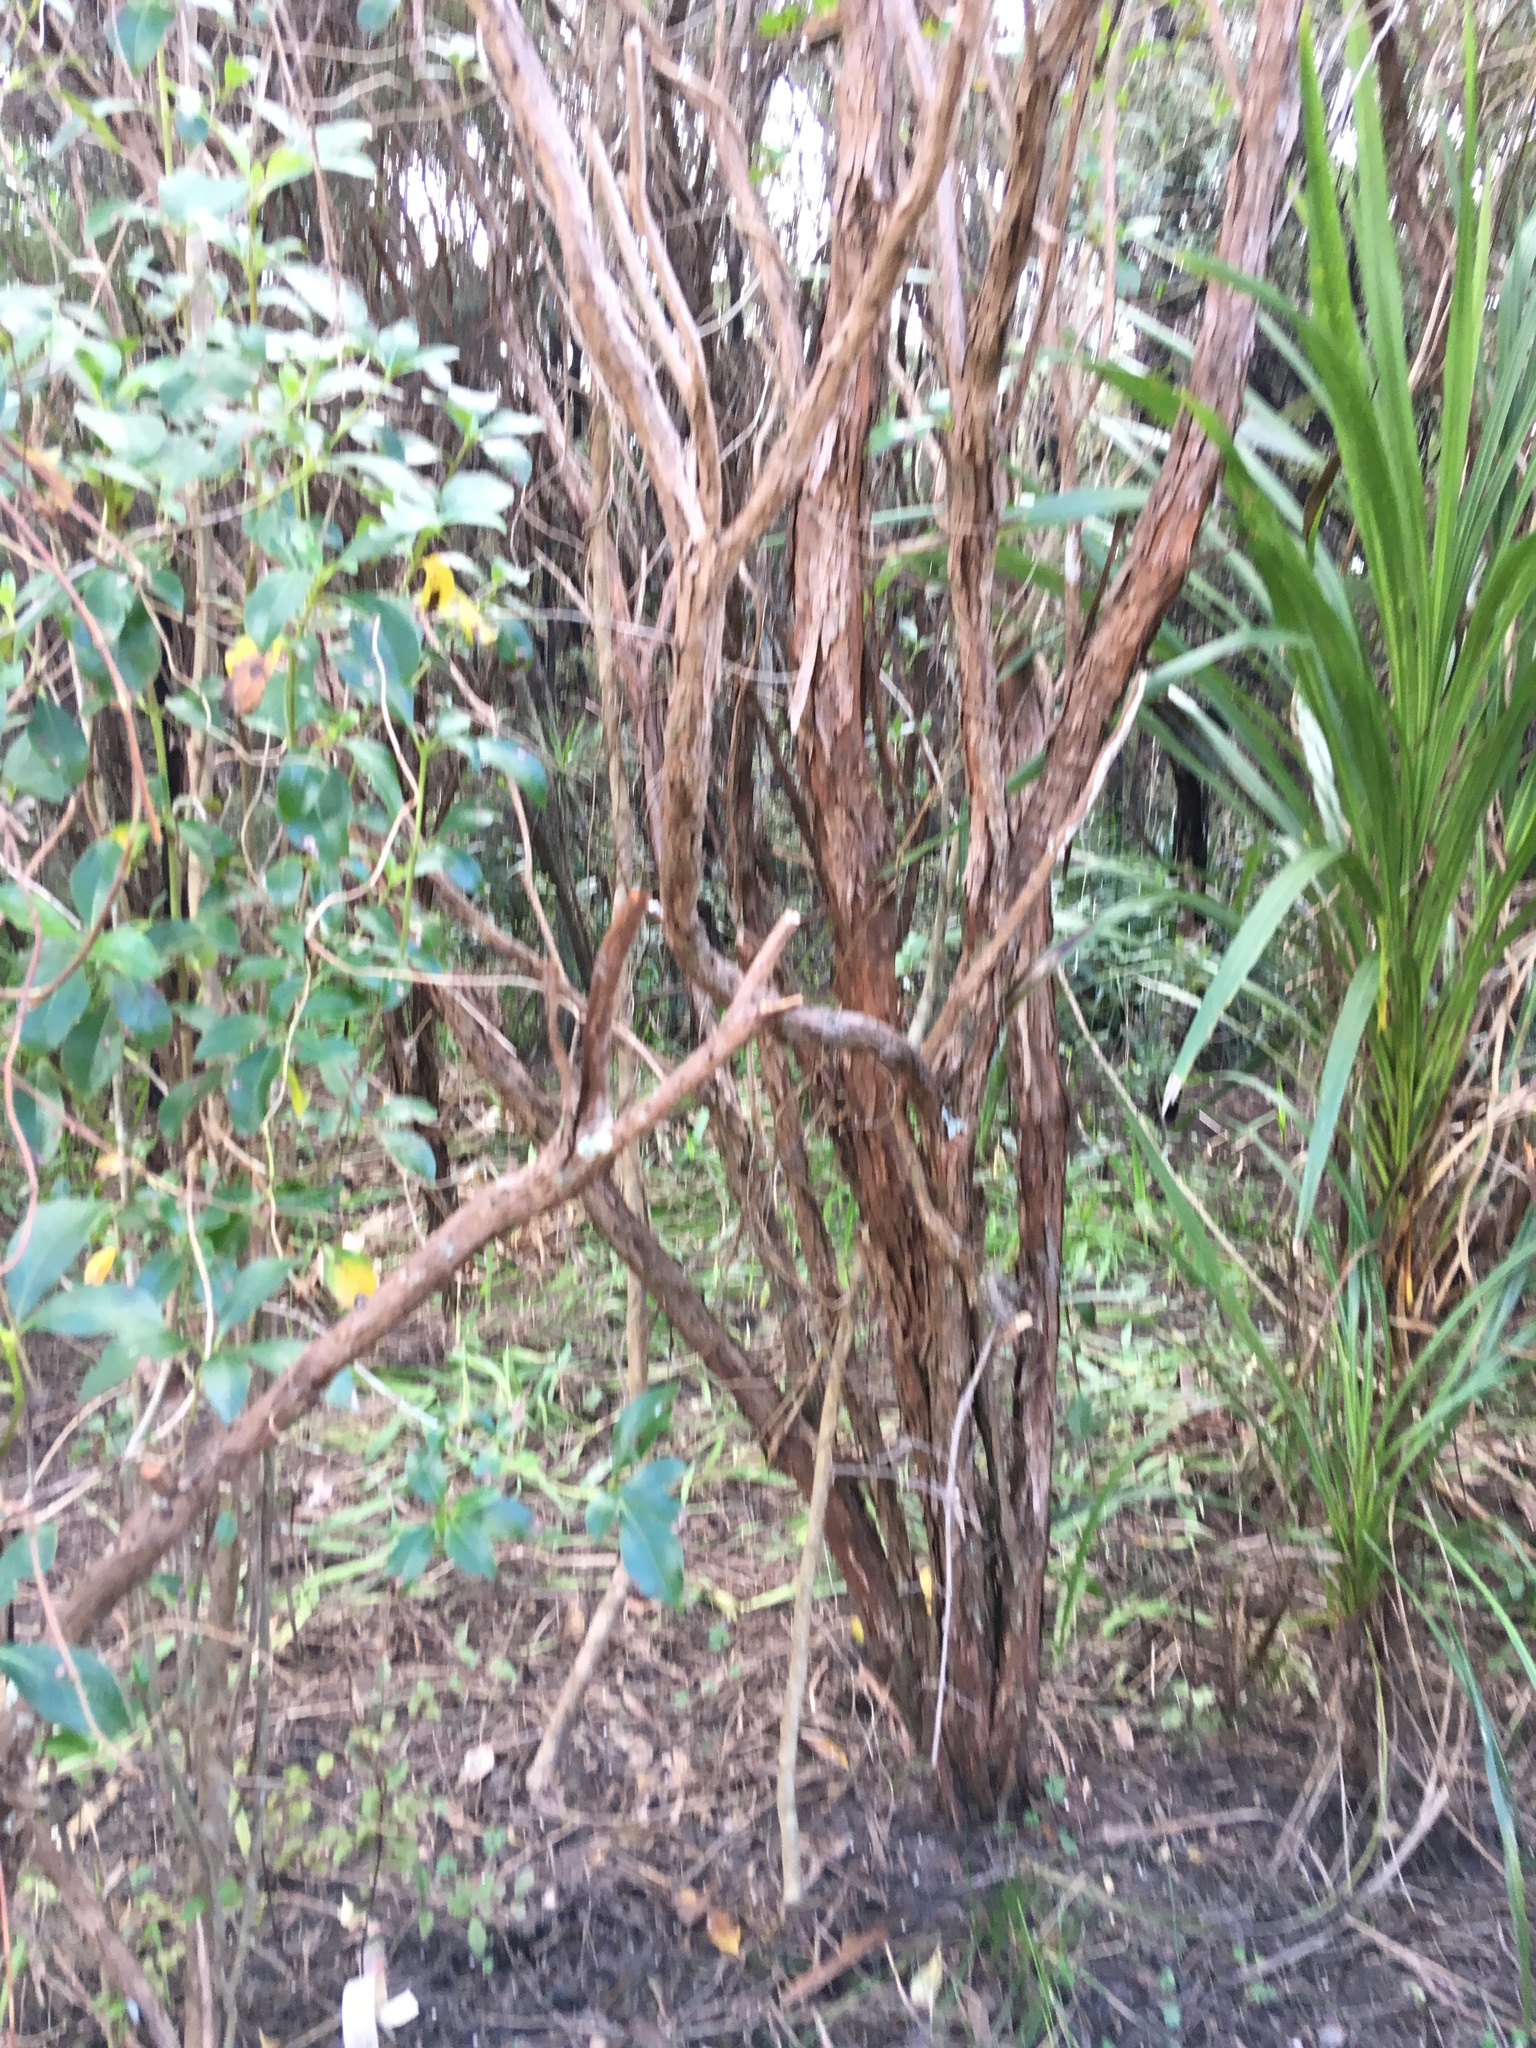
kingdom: Plantae
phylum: Tracheophyta
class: Liliopsida
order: Asparagales
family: Asparagaceae
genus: Cordyline
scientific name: Cordyline australis
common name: Cabbage-palm
